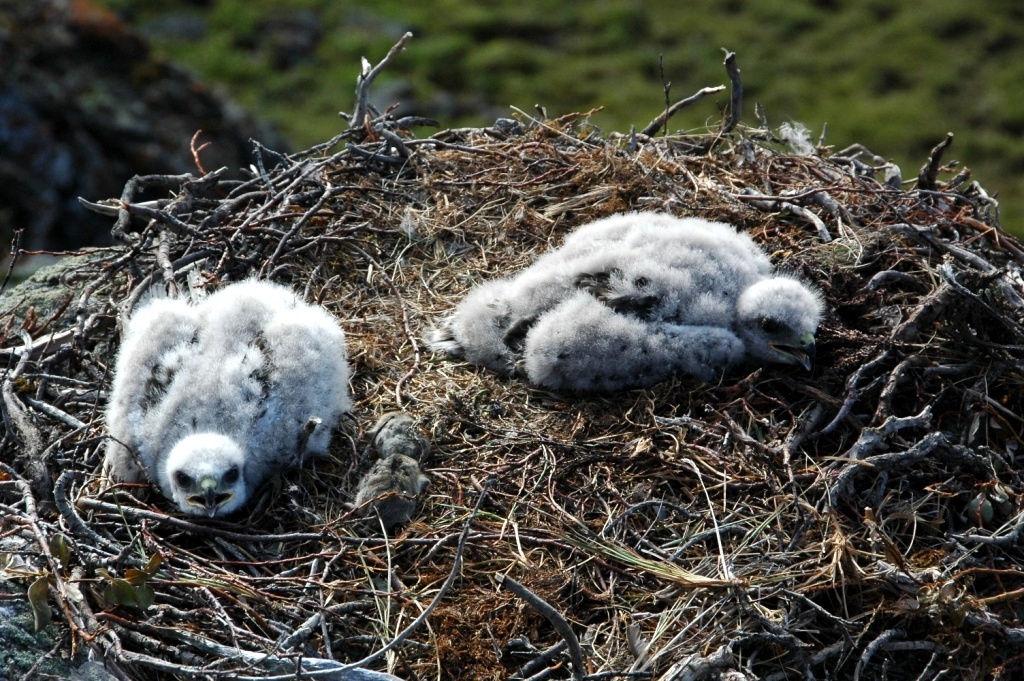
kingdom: Animalia
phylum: Chordata
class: Aves
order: Accipitriformes
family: Accipitridae
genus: Buteo
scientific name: Buteo lagopus
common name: Rough-legged buzzard
